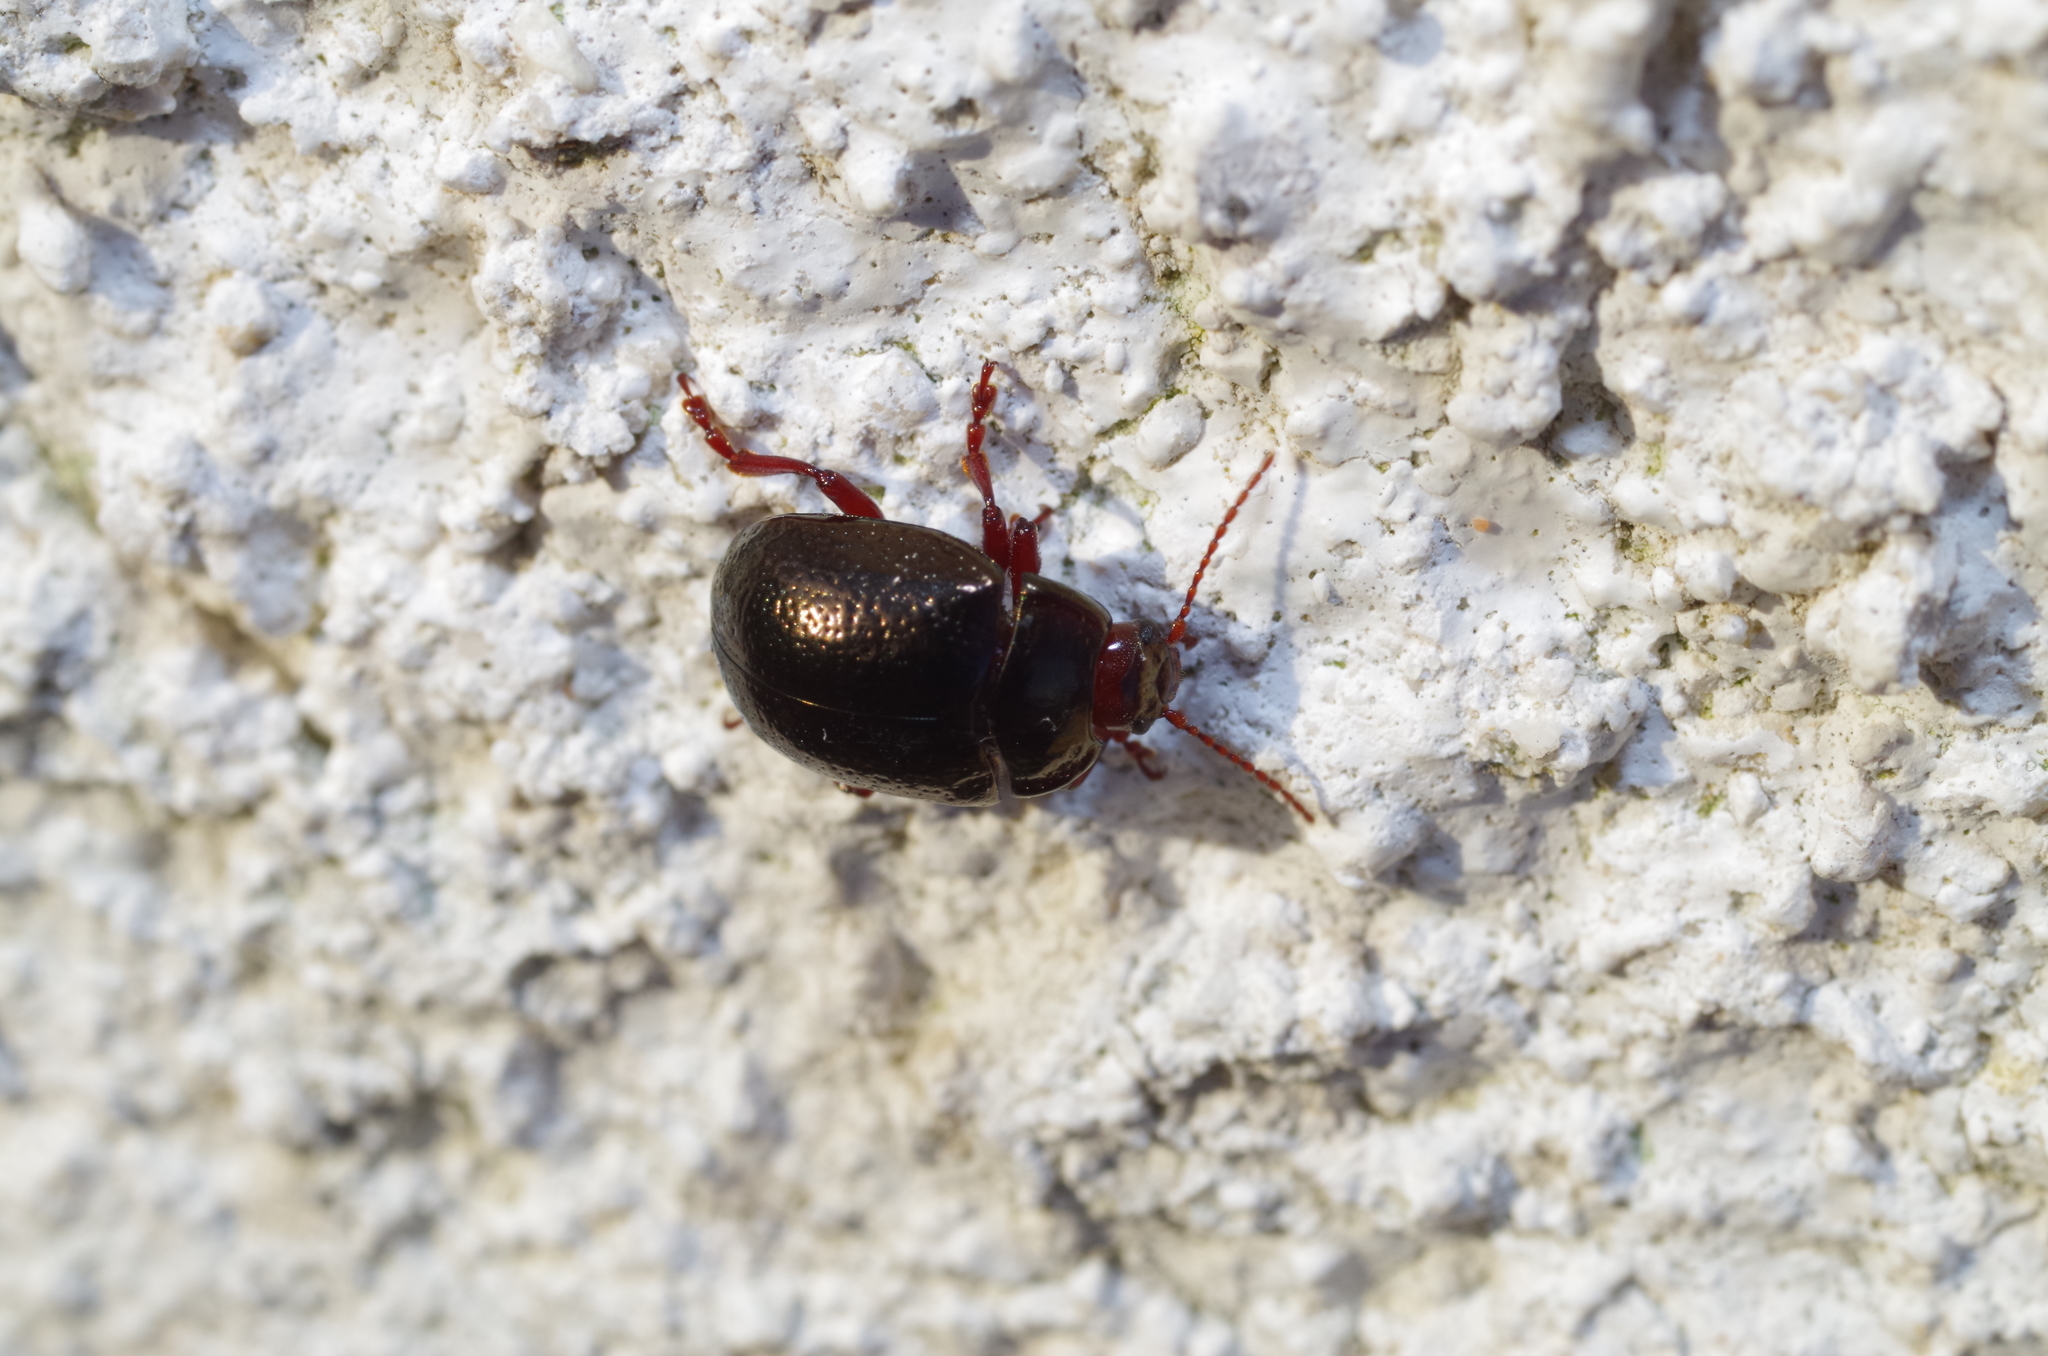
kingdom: Animalia
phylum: Arthropoda
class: Insecta
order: Coleoptera
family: Chrysomelidae
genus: Chrysolina
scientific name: Chrysolina bankii
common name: Leaf beetle
